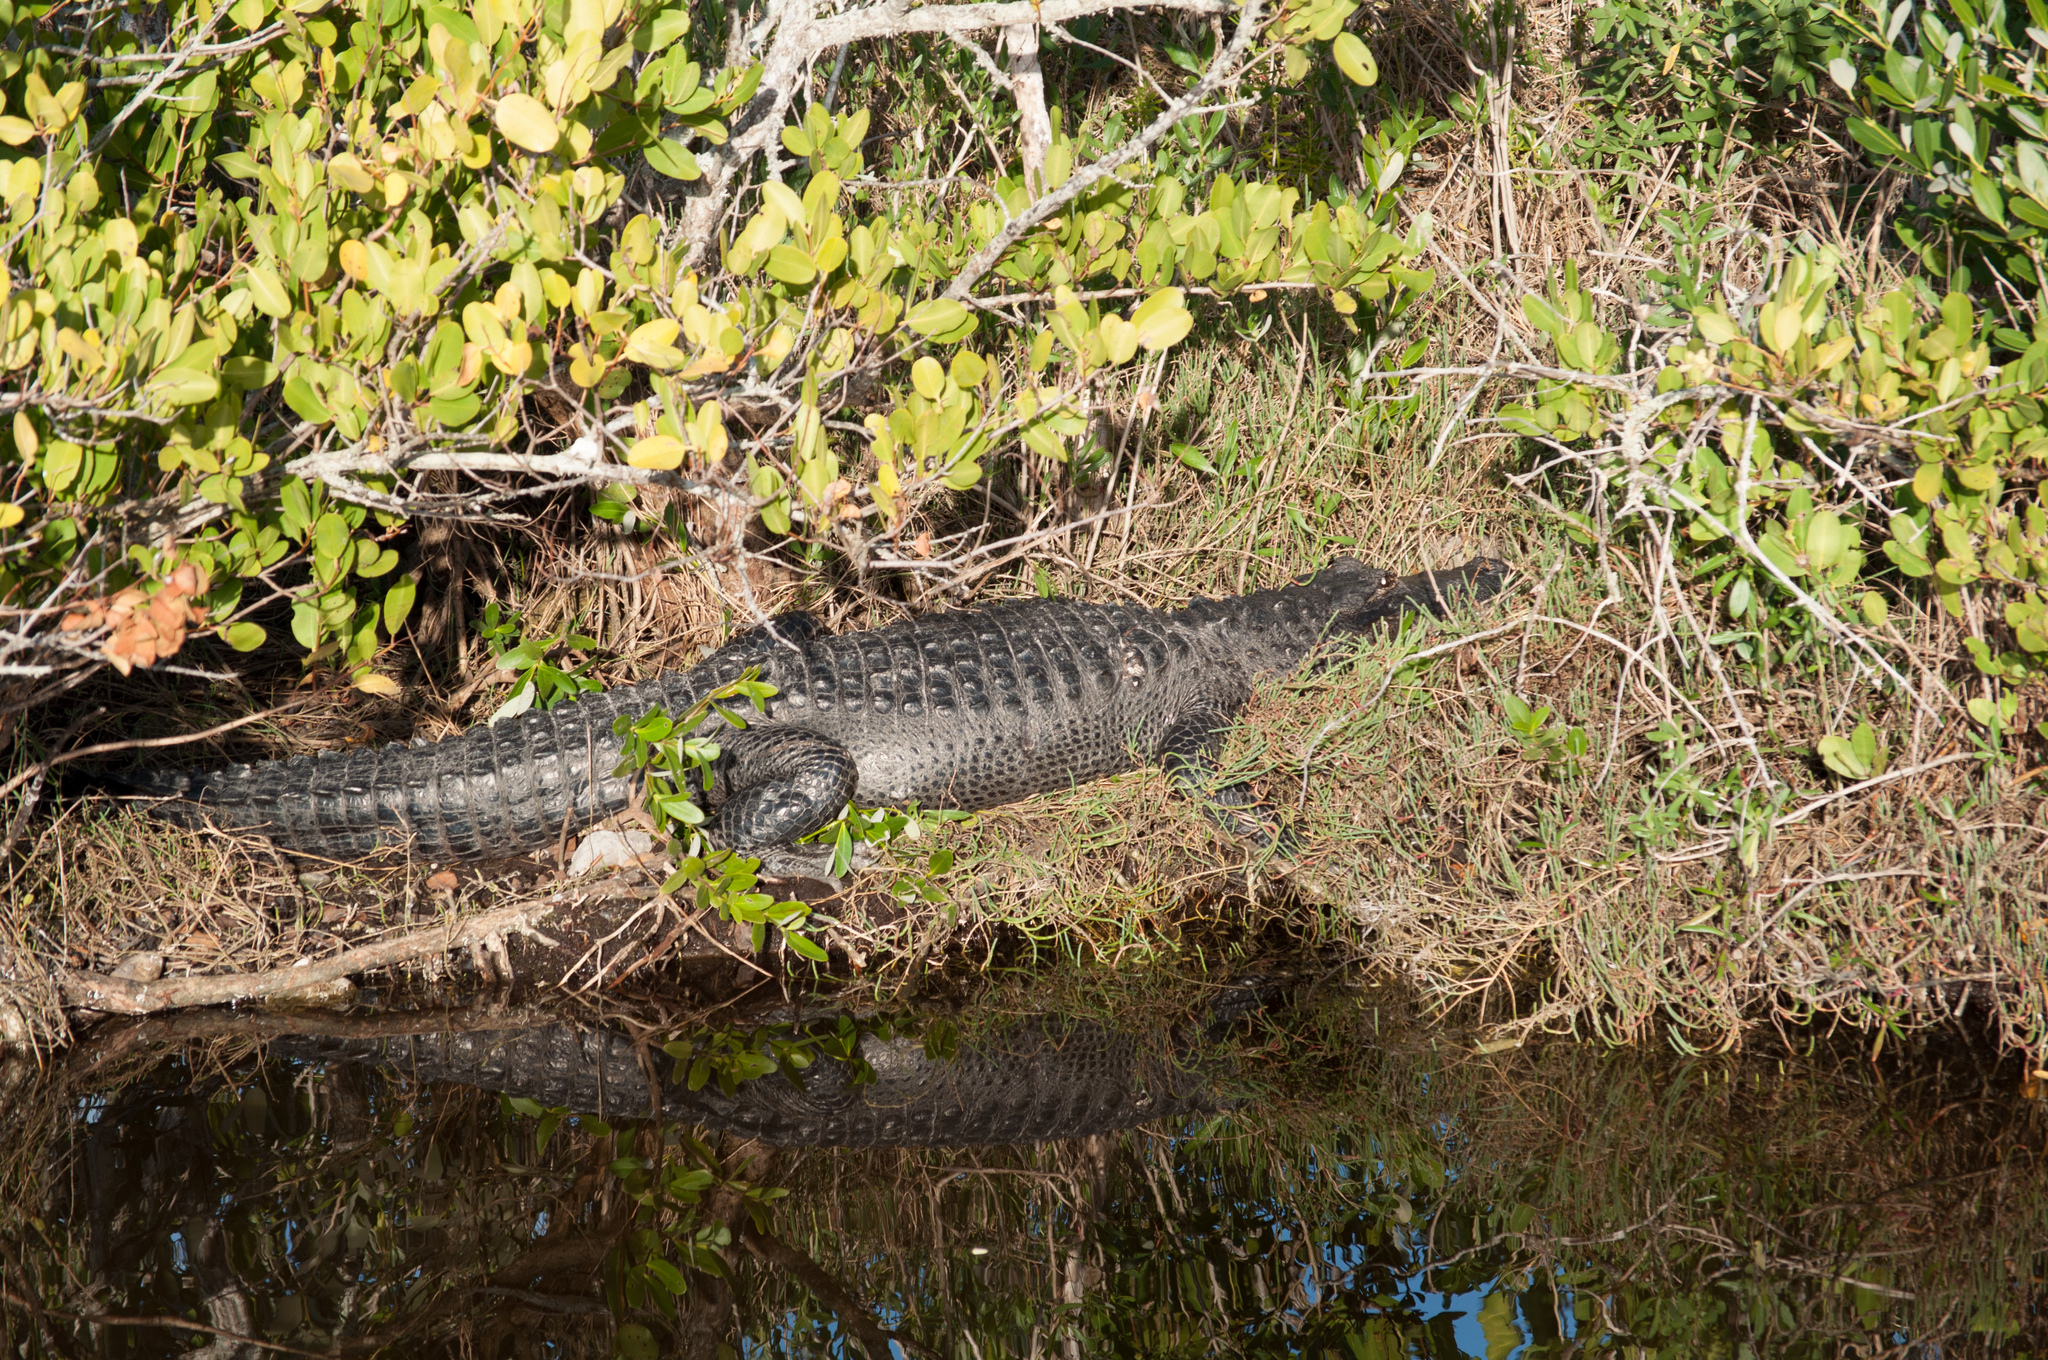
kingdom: Animalia
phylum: Chordata
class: Crocodylia
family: Alligatoridae
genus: Alligator
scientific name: Alligator mississippiensis
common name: American alligator
